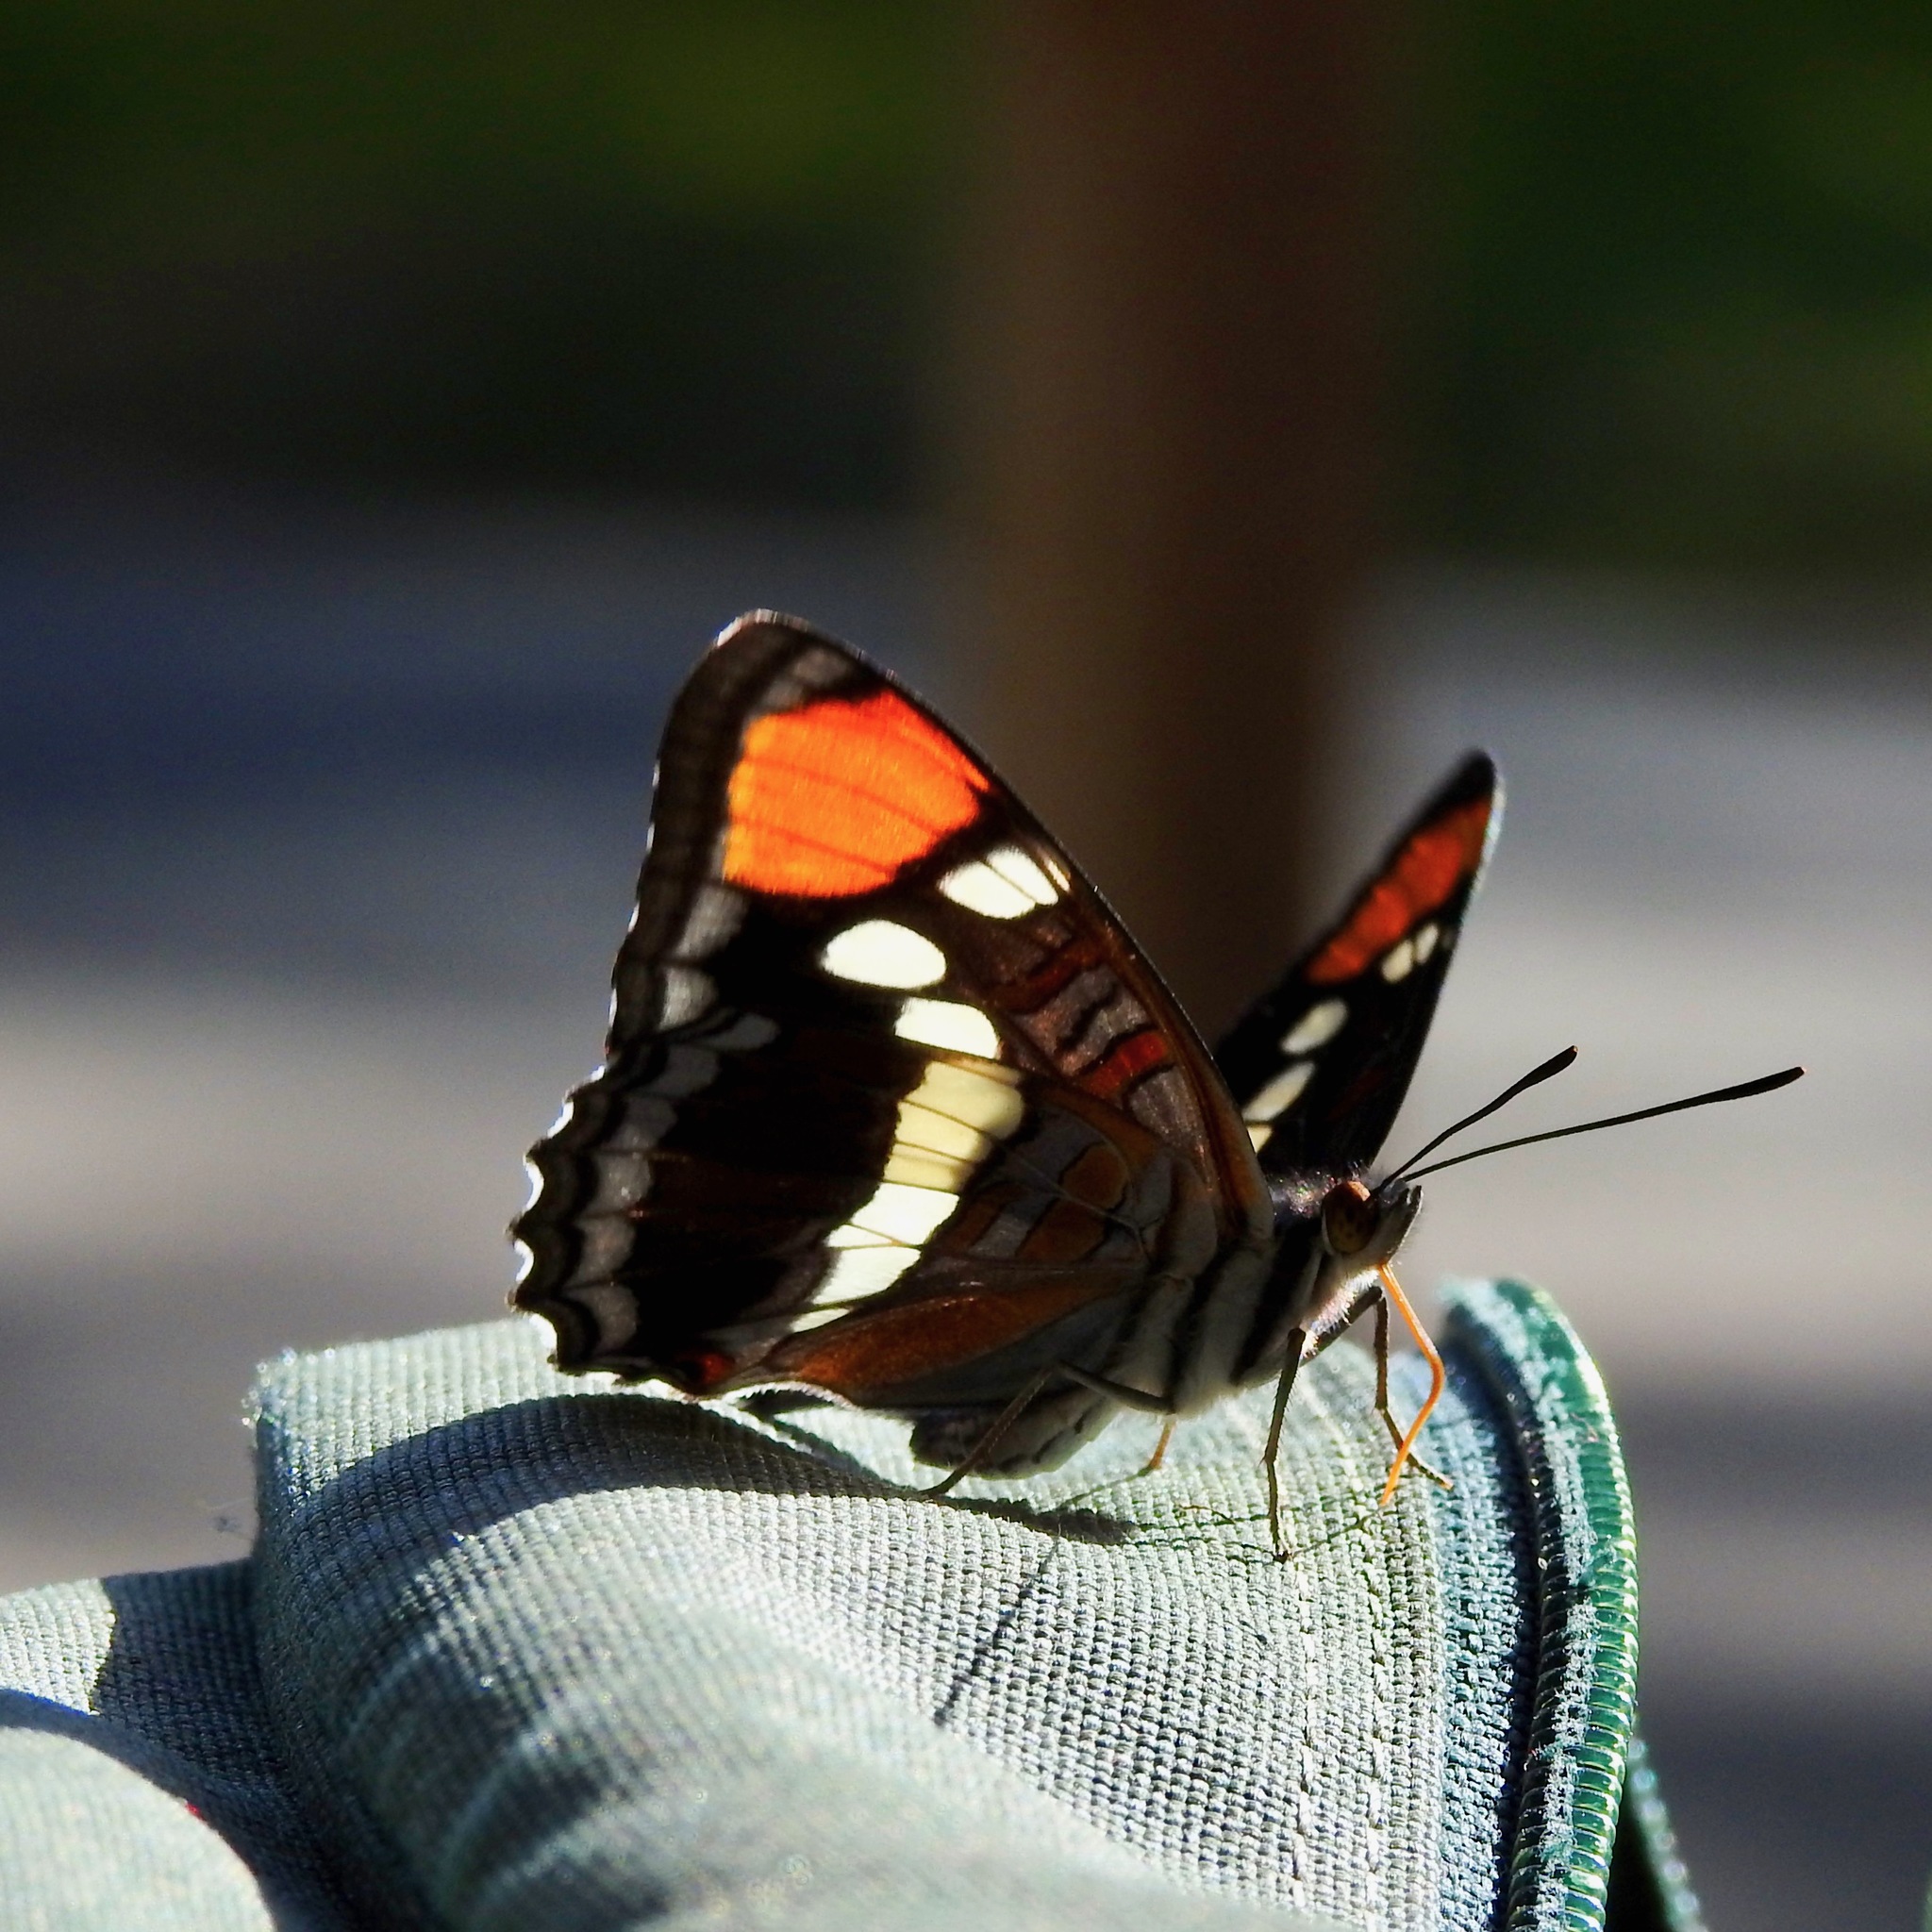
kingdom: Animalia
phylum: Arthropoda
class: Insecta
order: Lepidoptera
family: Nymphalidae
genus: Limenitis
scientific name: Limenitis bredowii
